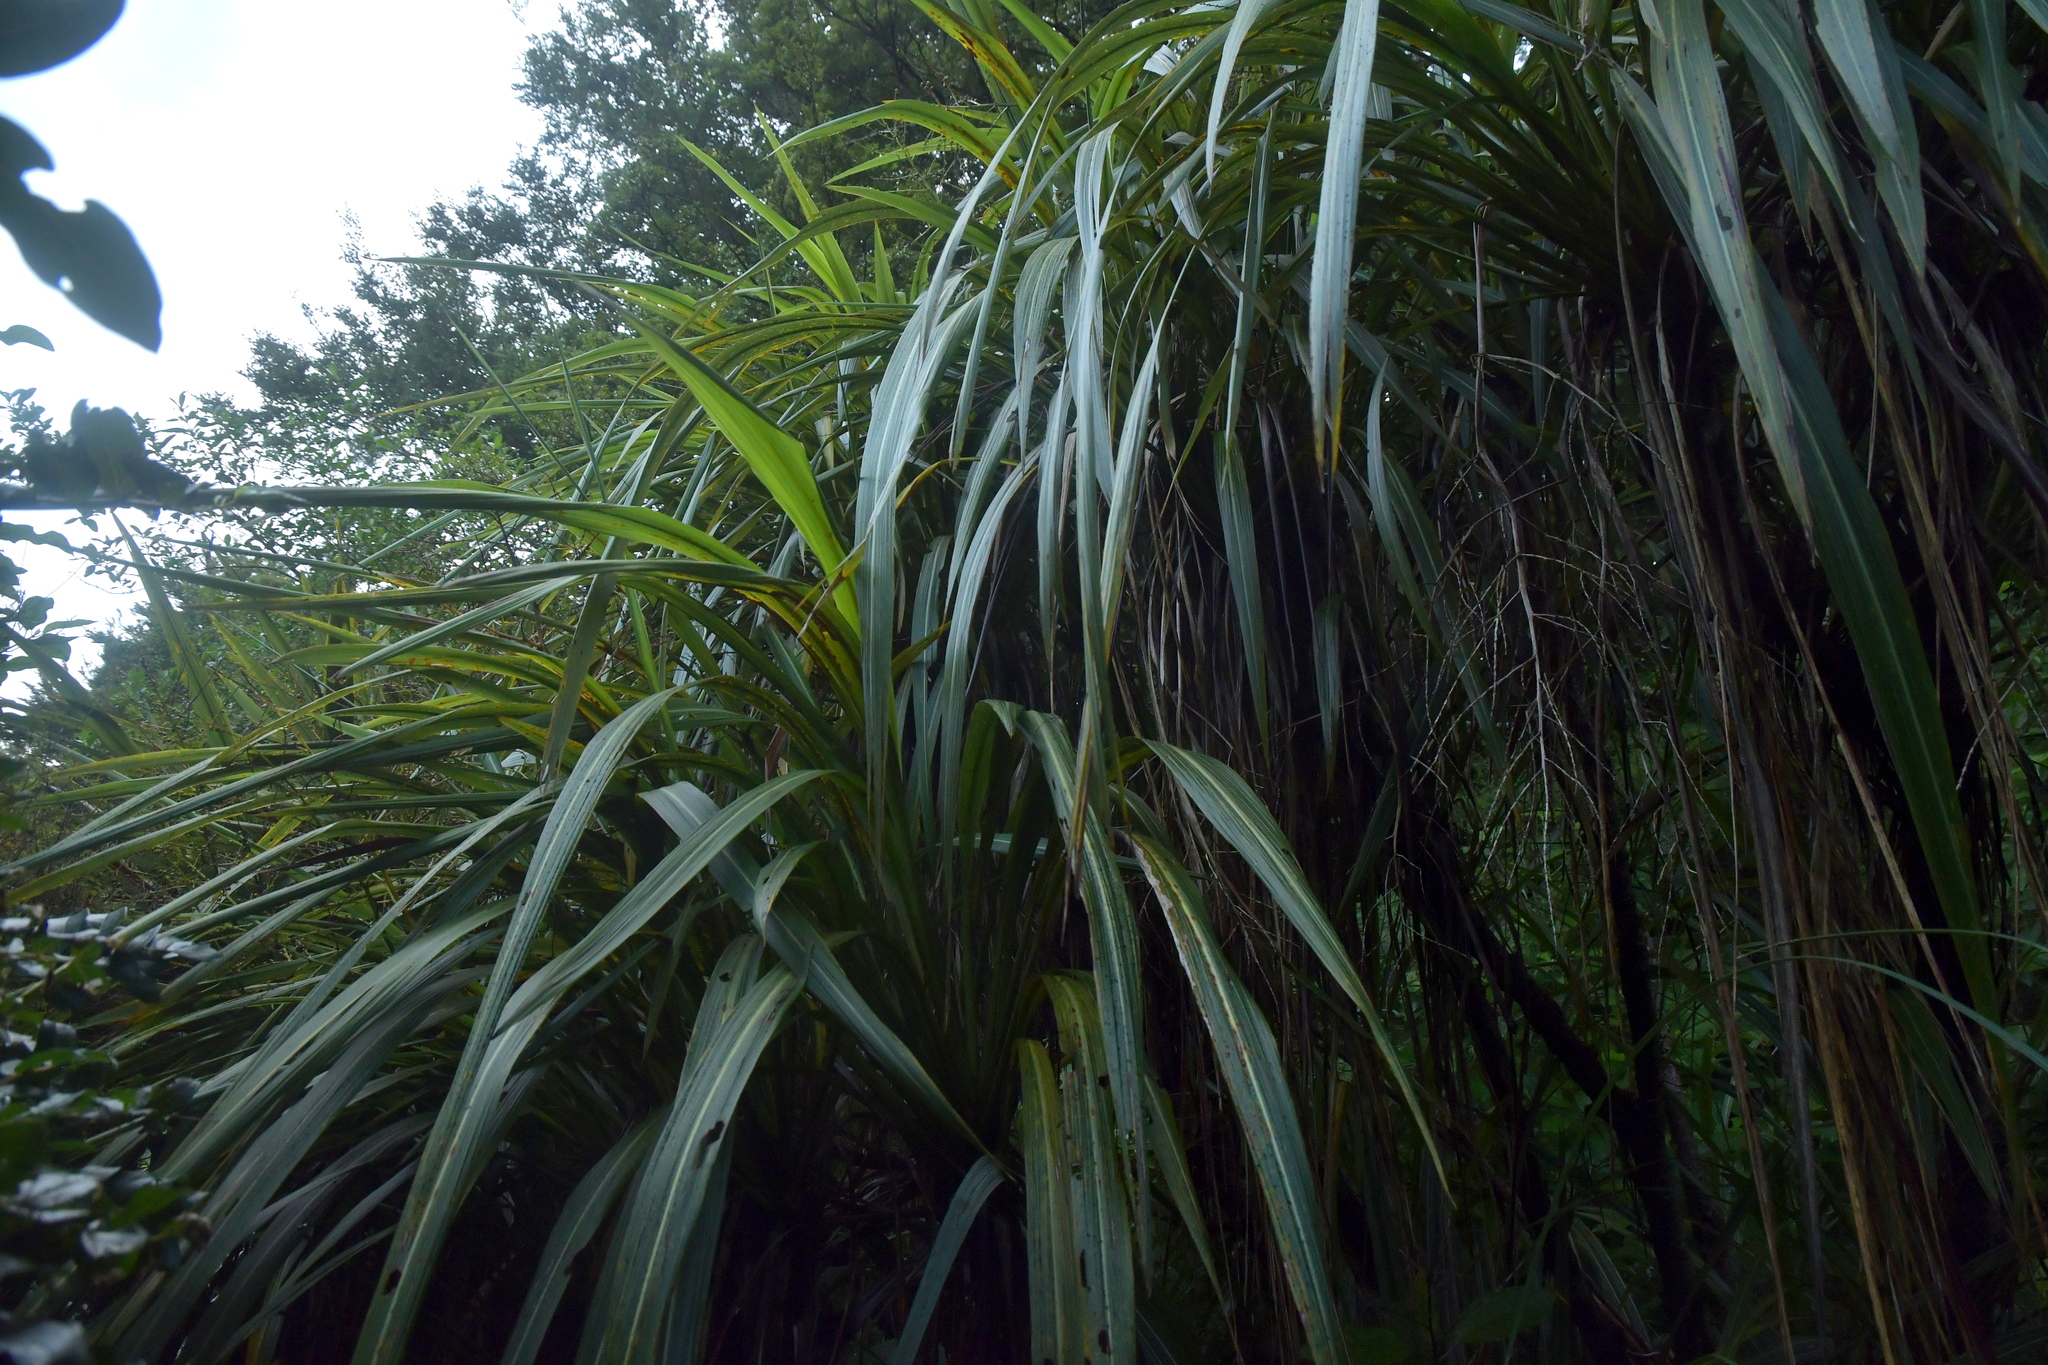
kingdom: Plantae
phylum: Tracheophyta
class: Liliopsida
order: Asparagales
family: Asparagaceae
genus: Cordyline
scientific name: Cordyline banksii
